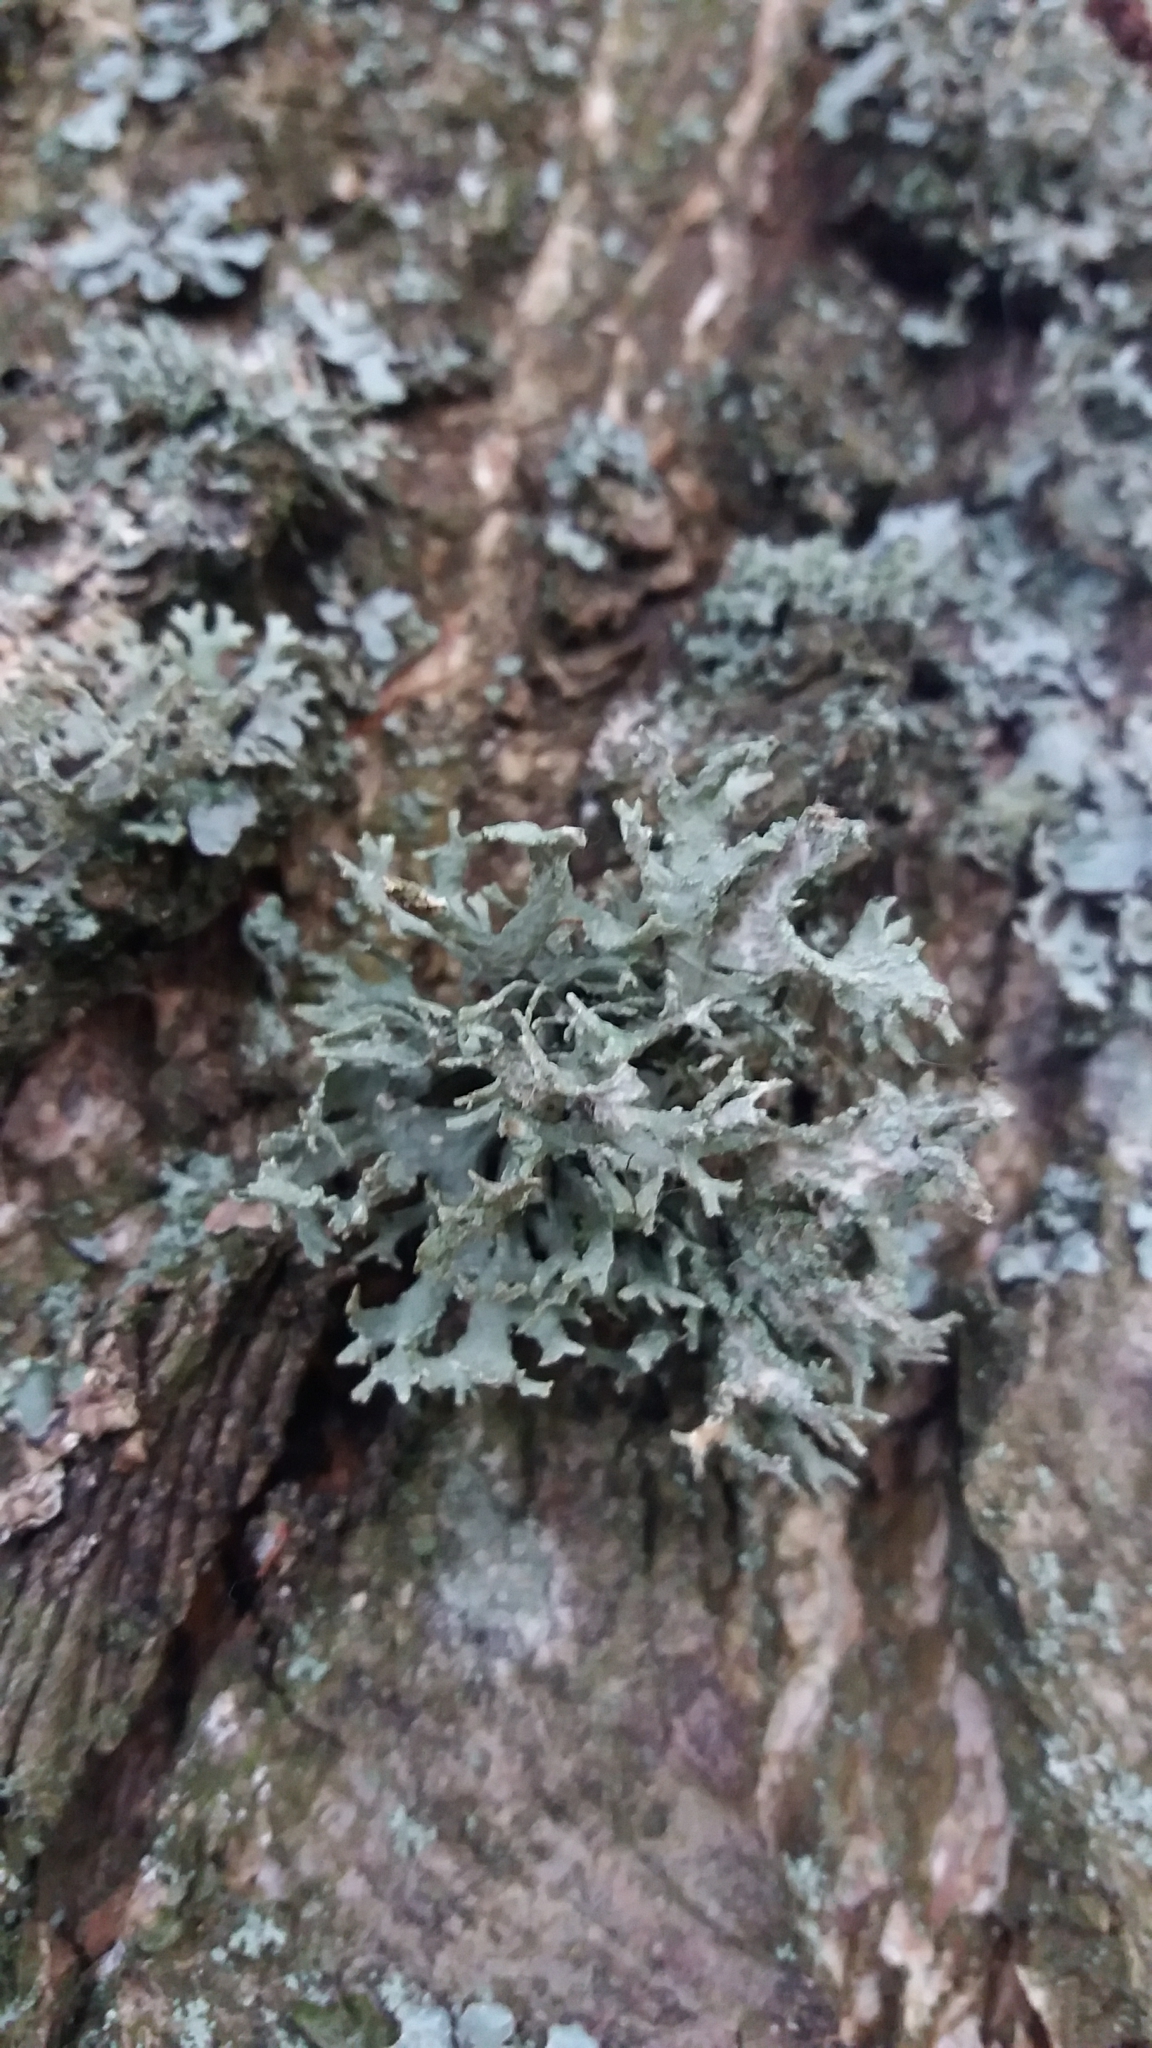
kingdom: Fungi
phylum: Ascomycota
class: Lecanoromycetes
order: Lecanorales
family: Parmeliaceae
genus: Evernia
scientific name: Evernia prunastri
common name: Oak moss
